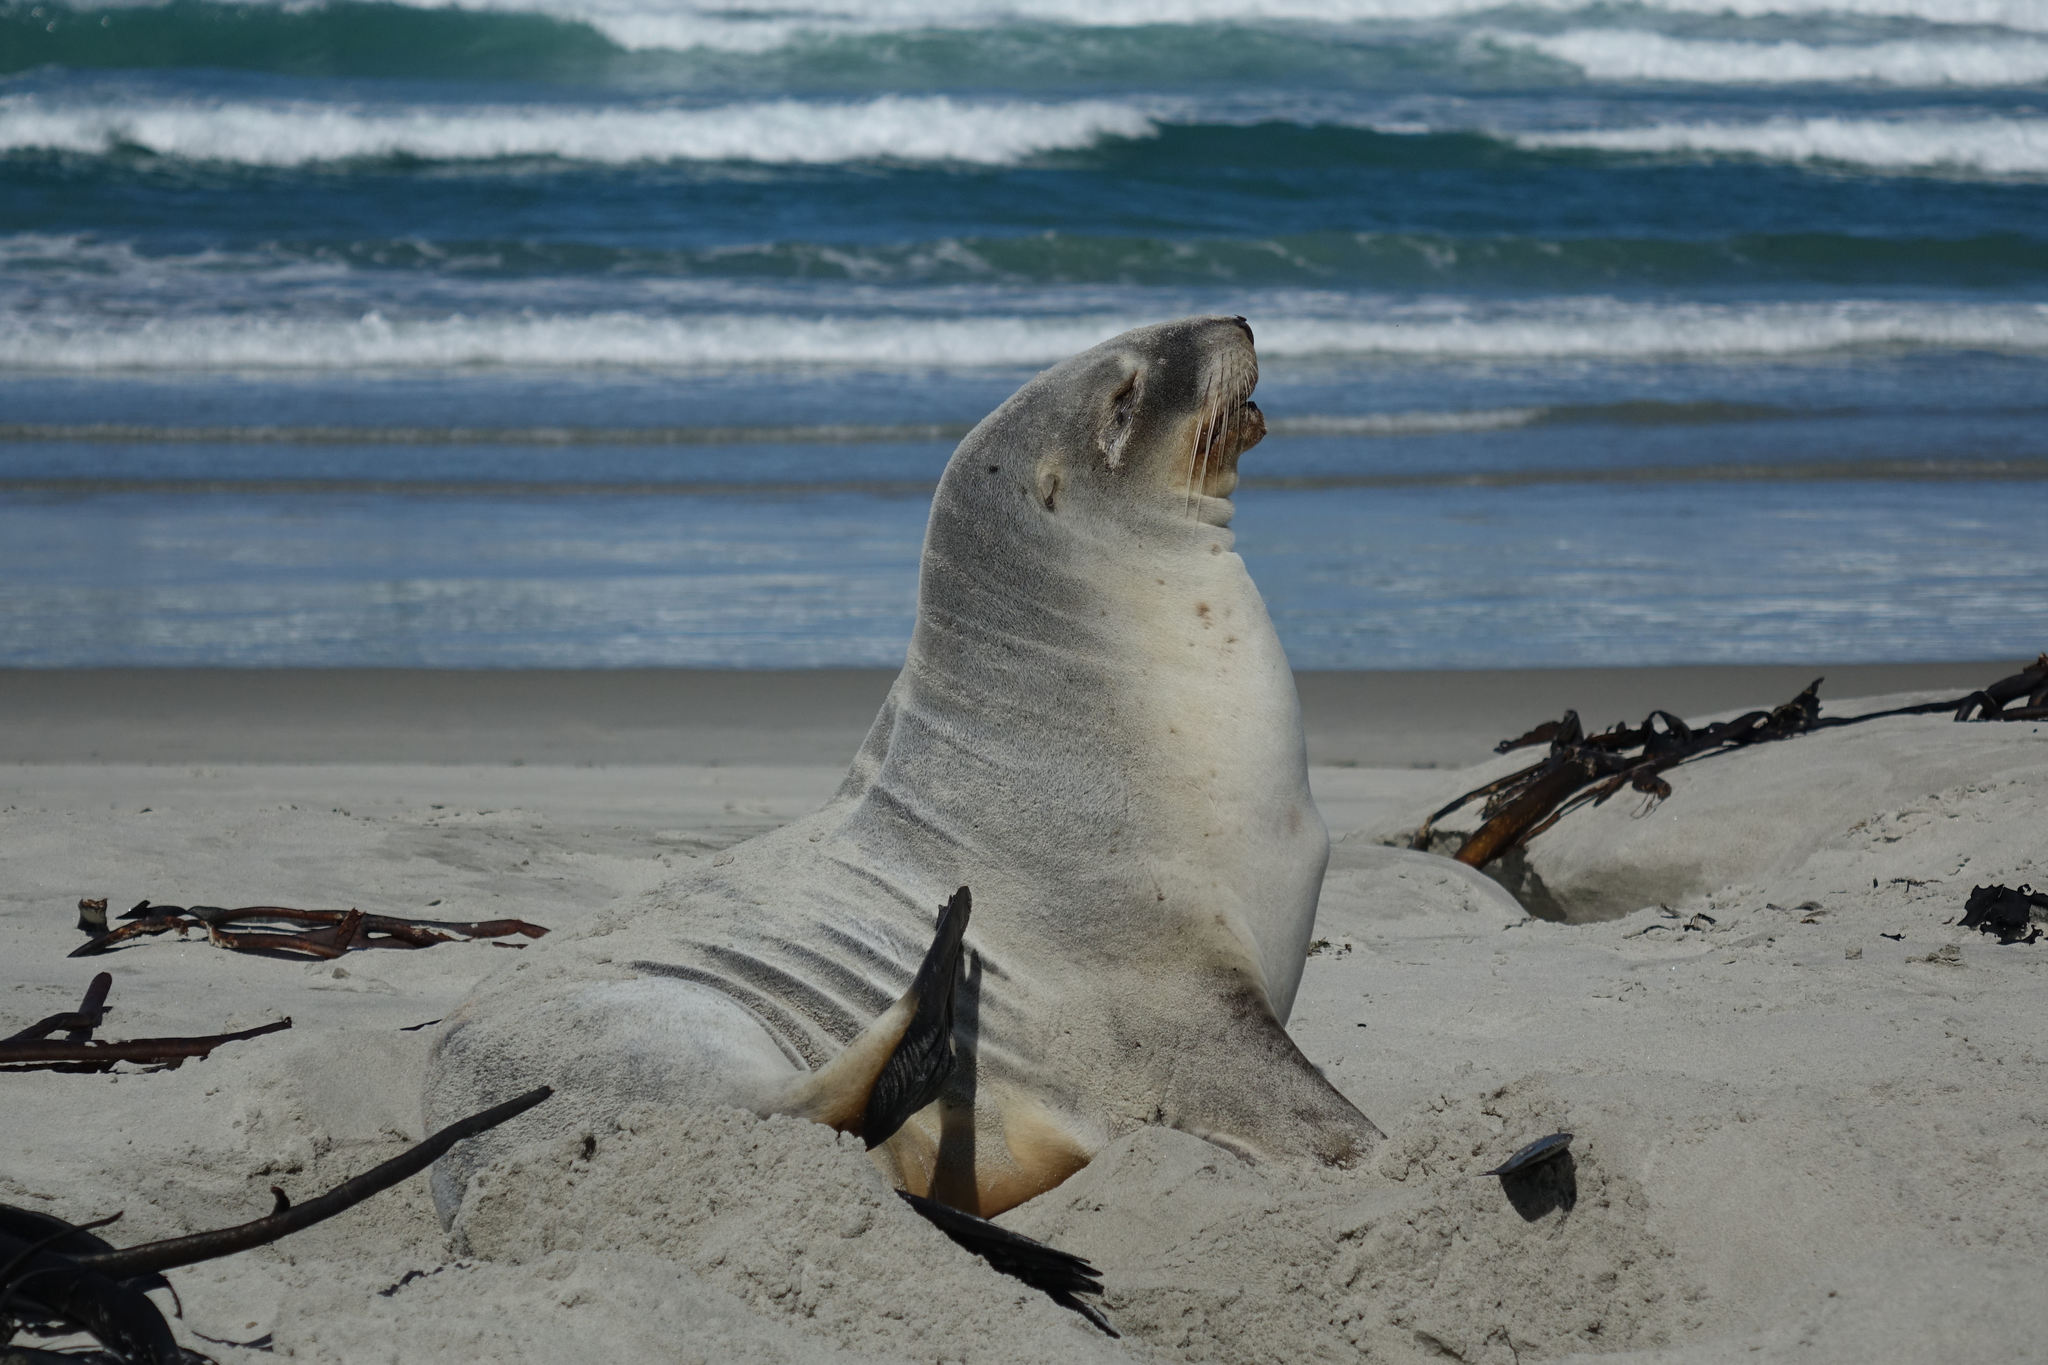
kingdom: Animalia
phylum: Chordata
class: Mammalia
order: Carnivora
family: Otariidae
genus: Phocarctos
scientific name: Phocarctos hookeri
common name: New zealand sea lion
